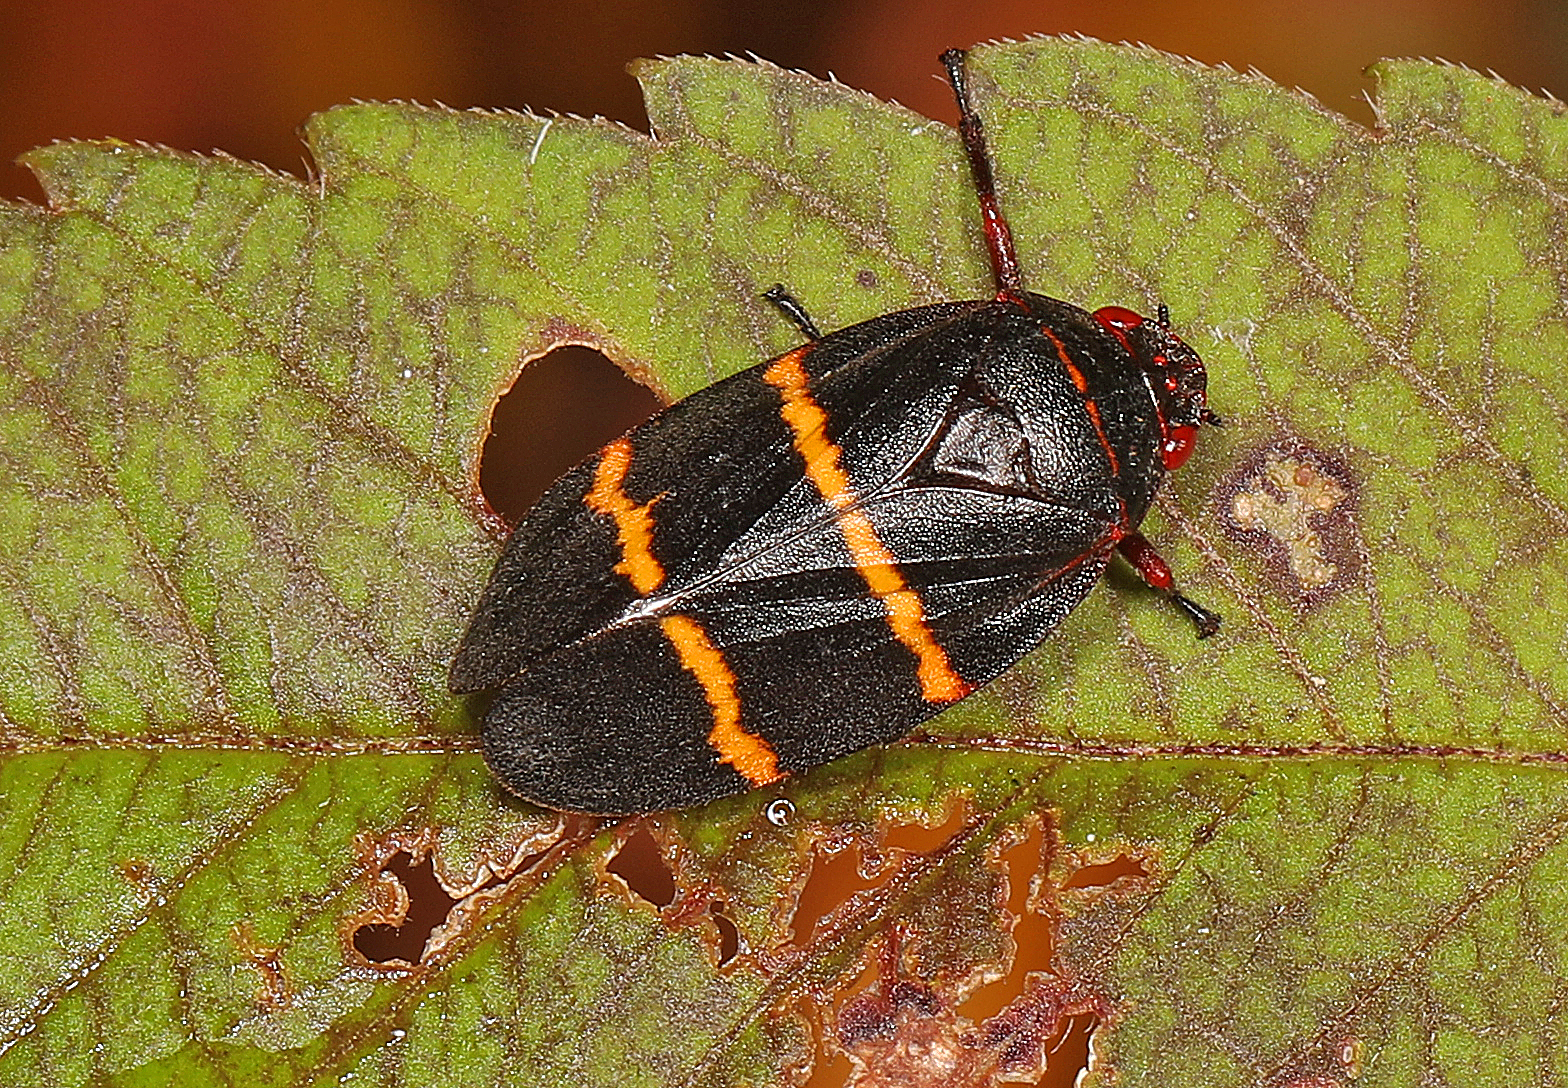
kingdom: Animalia
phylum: Arthropoda
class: Insecta
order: Hemiptera
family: Cercopidae
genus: Prosapia
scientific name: Prosapia bicincta
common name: Twolined spittlebug
